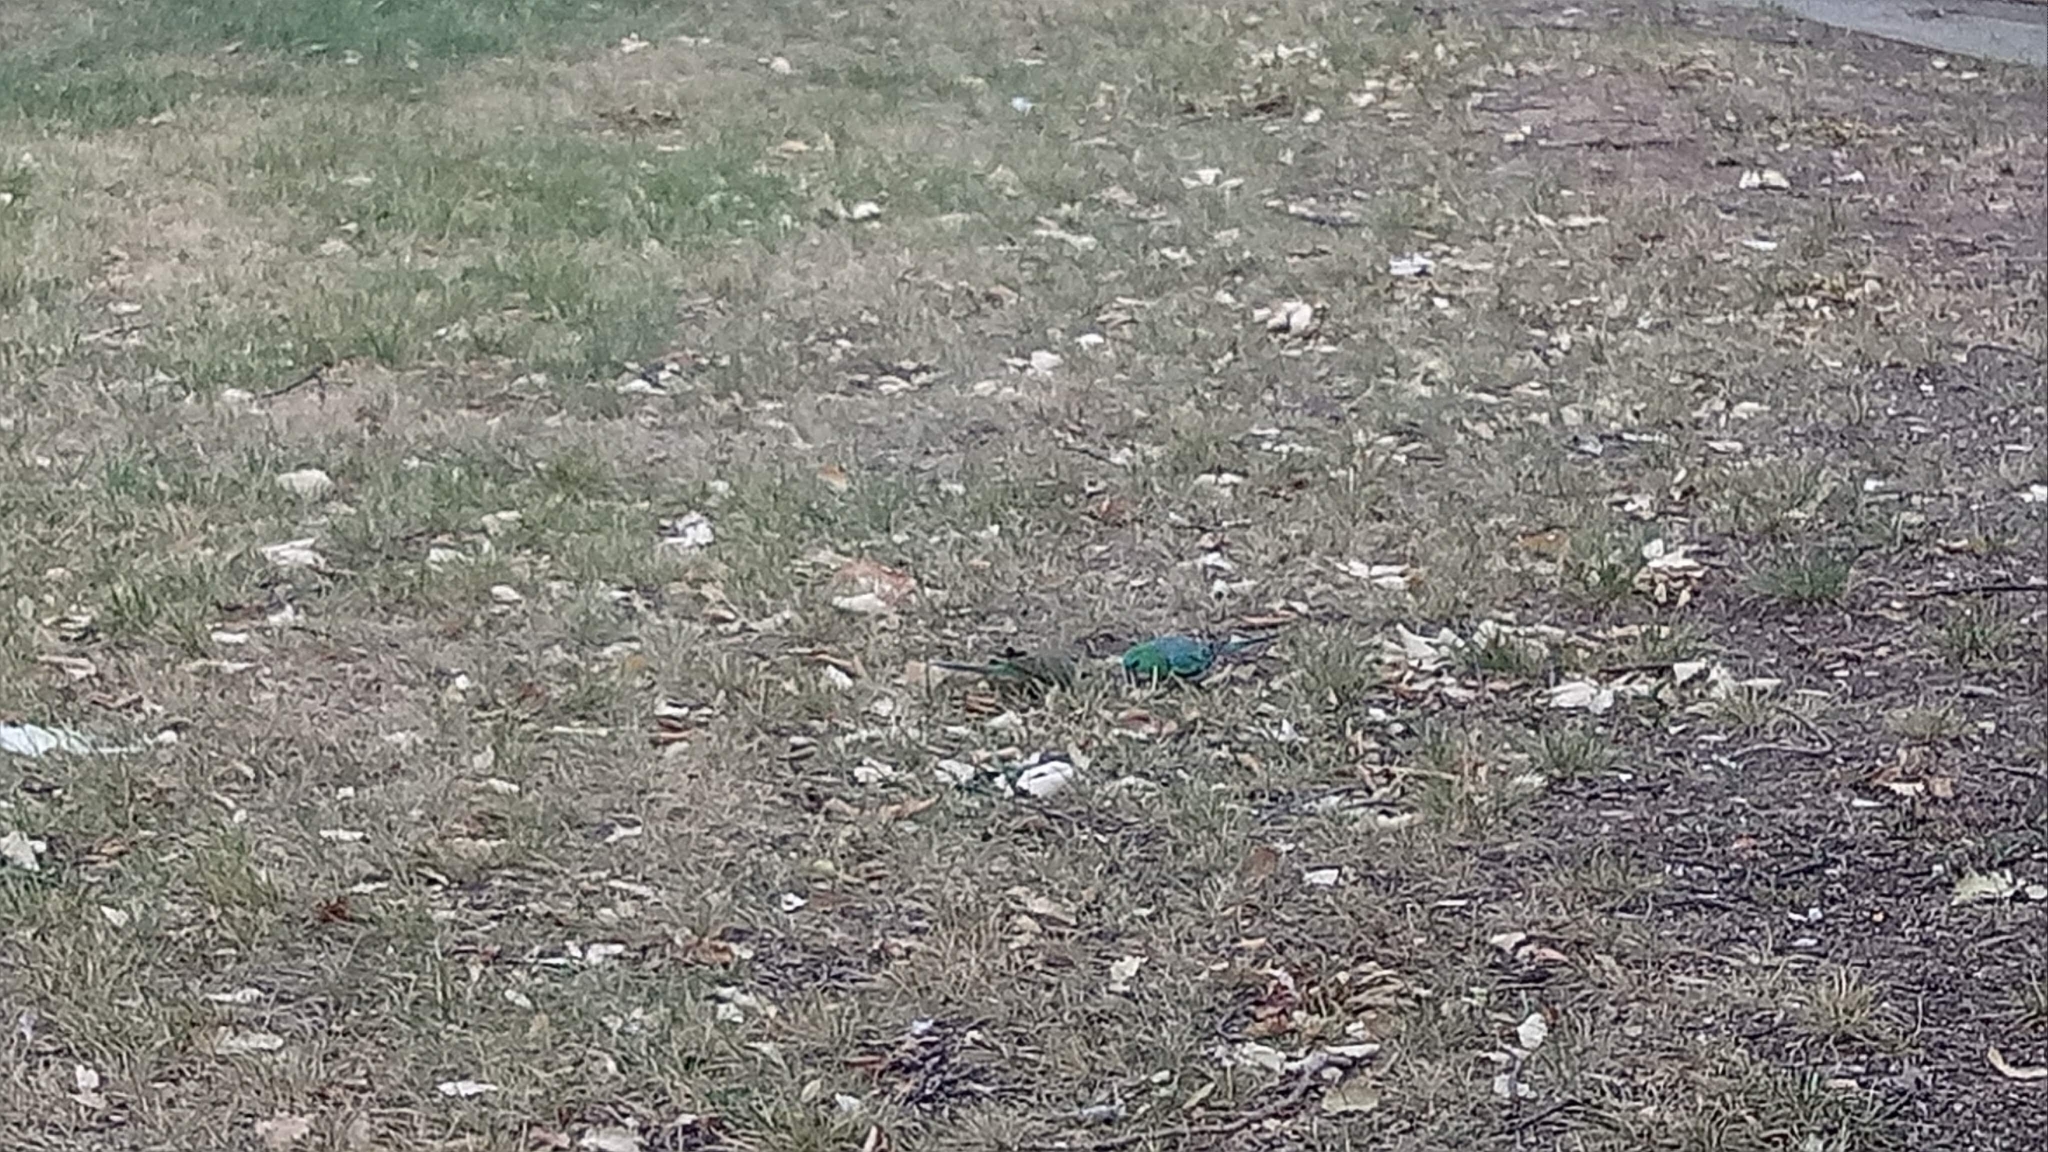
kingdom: Animalia
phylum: Chordata
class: Aves
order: Psittaciformes
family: Psittacidae
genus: Psephotus
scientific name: Psephotus haematonotus
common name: Red-rumped parrot
